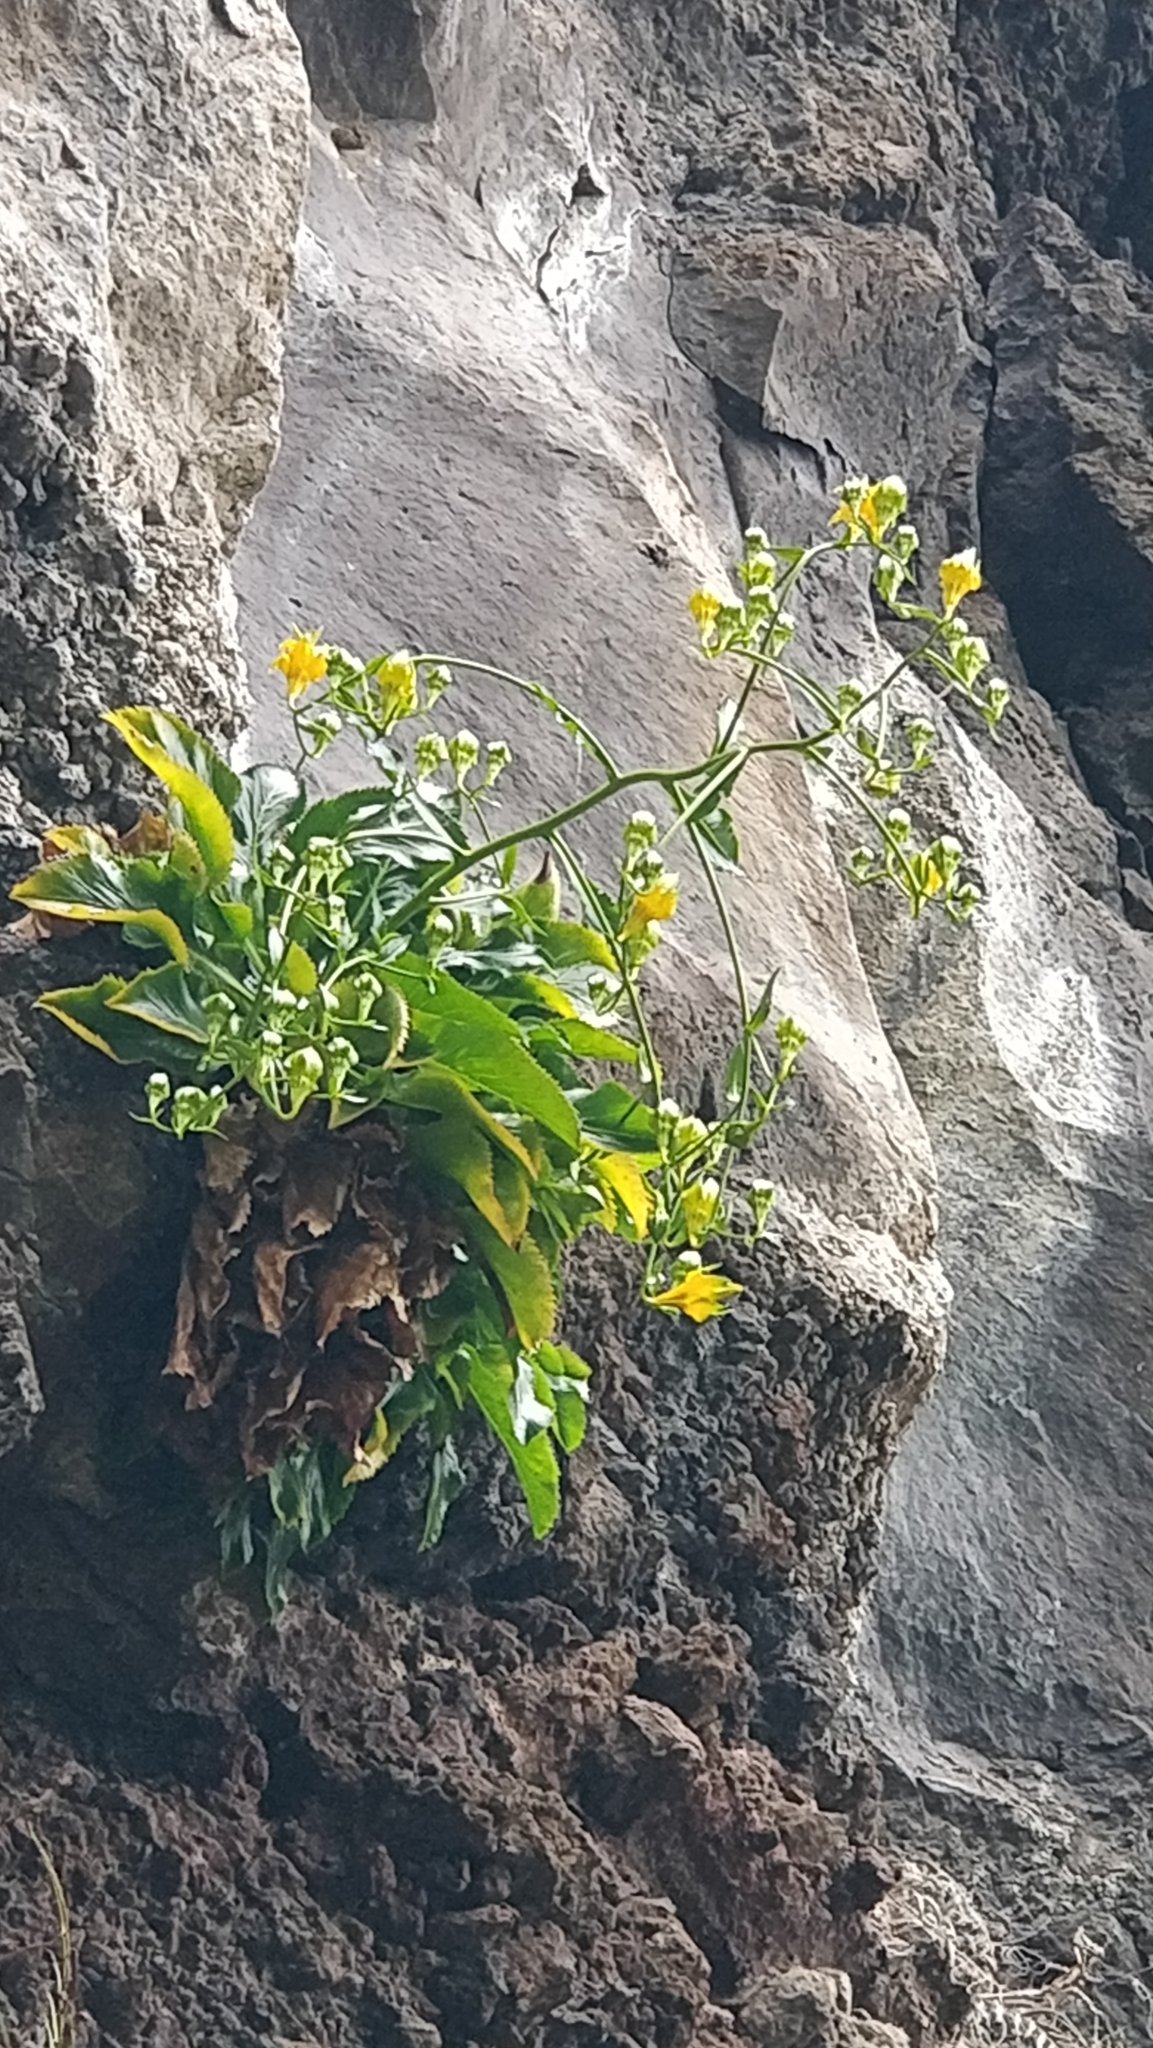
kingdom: Plantae
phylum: Tracheophyta
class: Magnoliopsida
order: Asterales
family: Campanulaceae
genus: Musschia
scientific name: Musschia aurea
